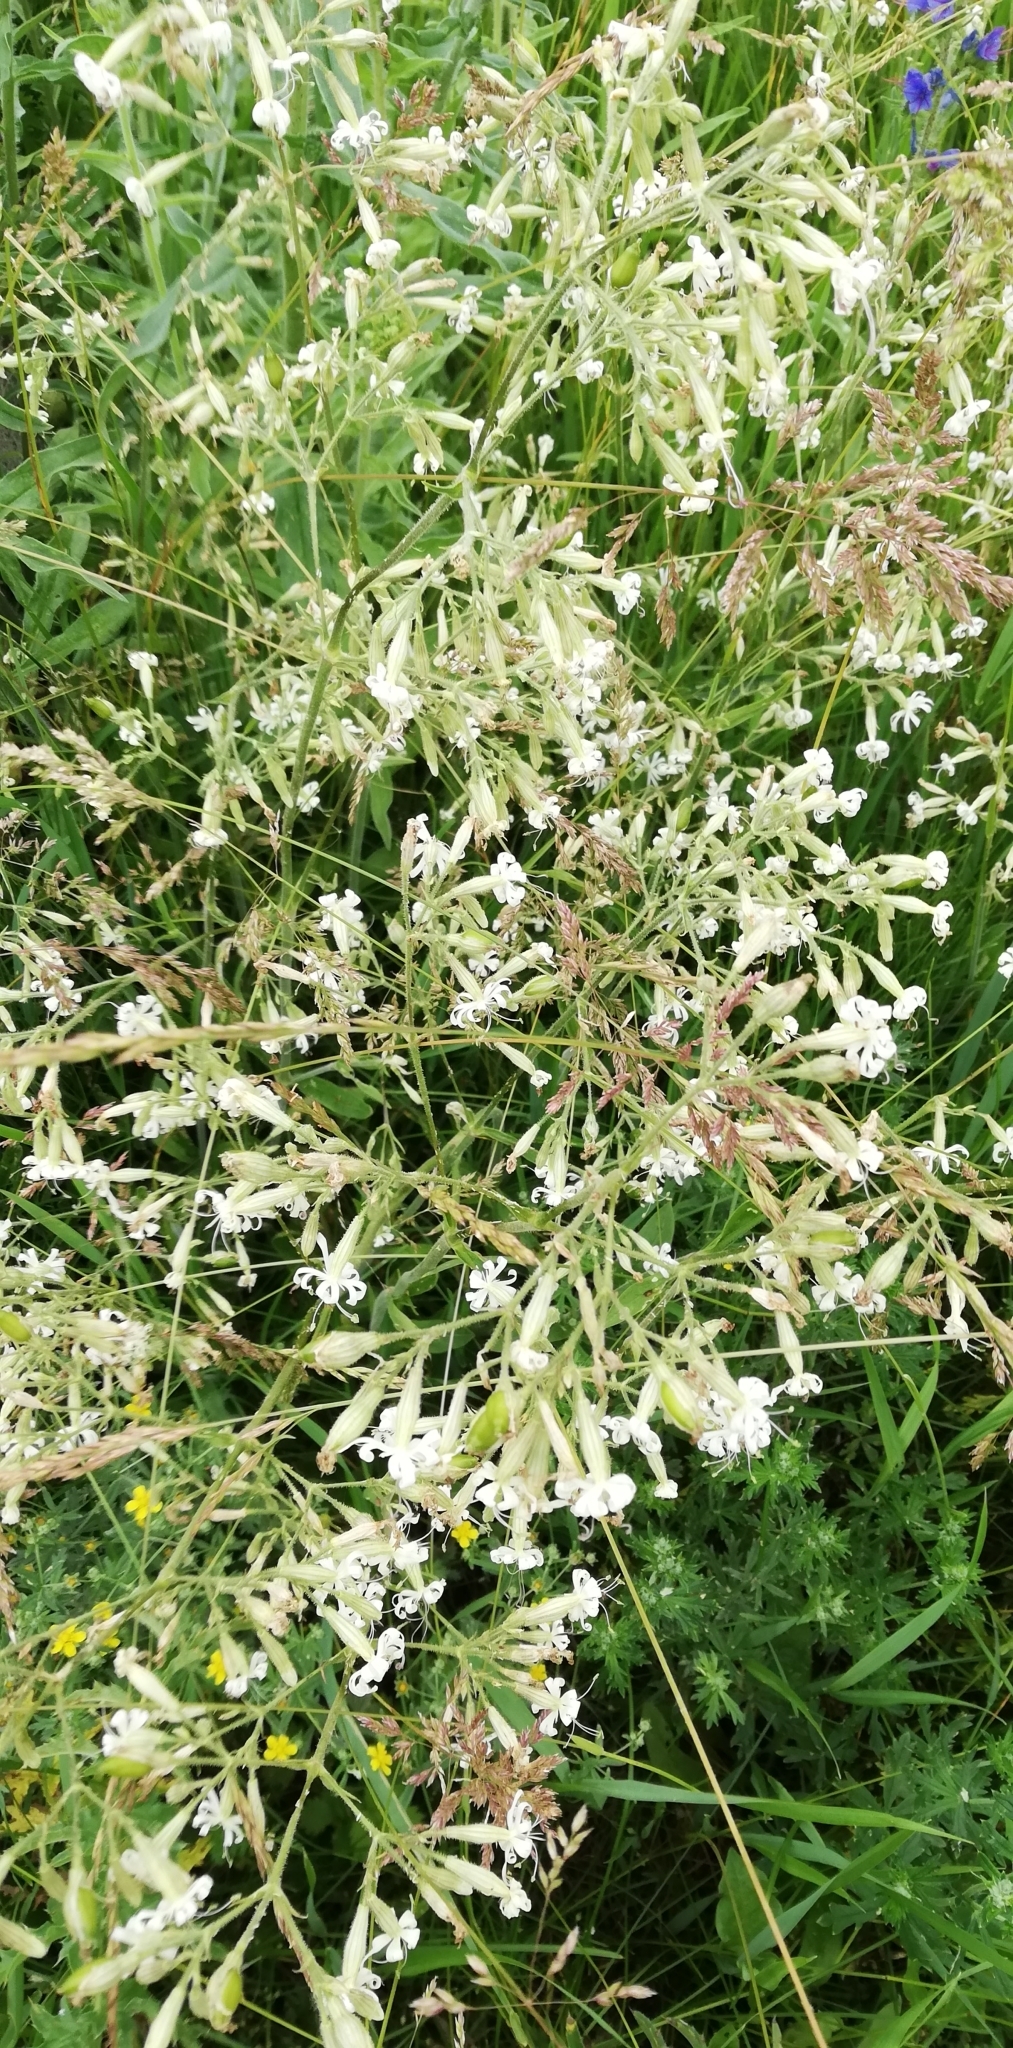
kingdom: Plantae
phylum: Tracheophyta
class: Magnoliopsida
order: Caryophyllales
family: Caryophyllaceae
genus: Silene
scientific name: Silene nutans
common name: Nottingham catchfly
